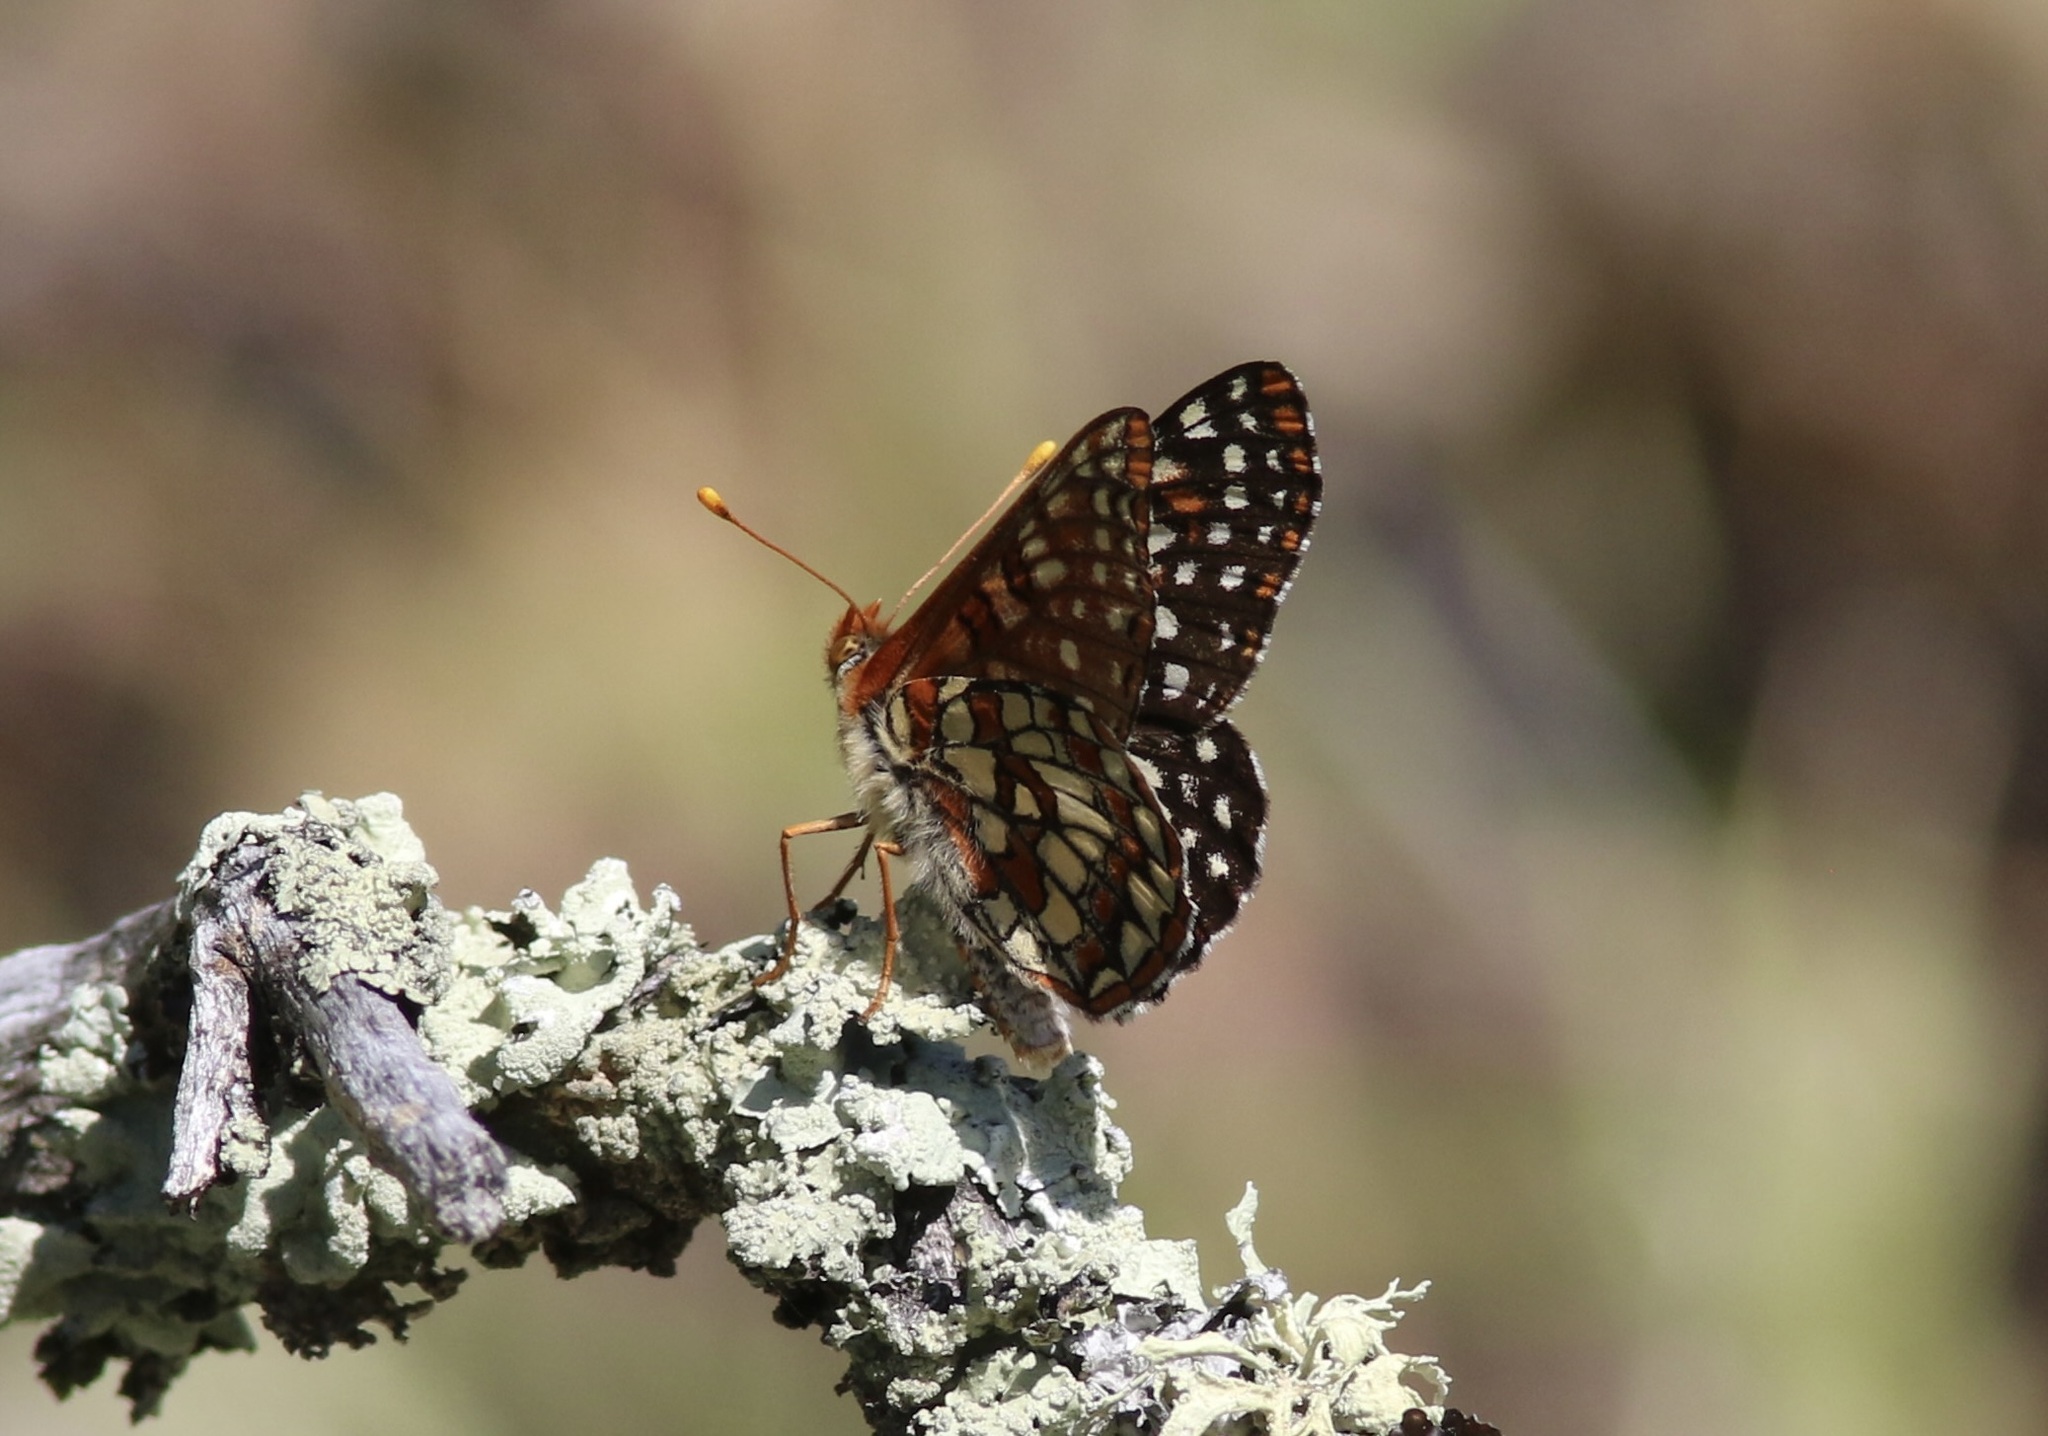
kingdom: Animalia
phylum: Arthropoda
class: Insecta
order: Lepidoptera
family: Nymphalidae
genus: Occidryas
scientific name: Occidryas chalcedona
